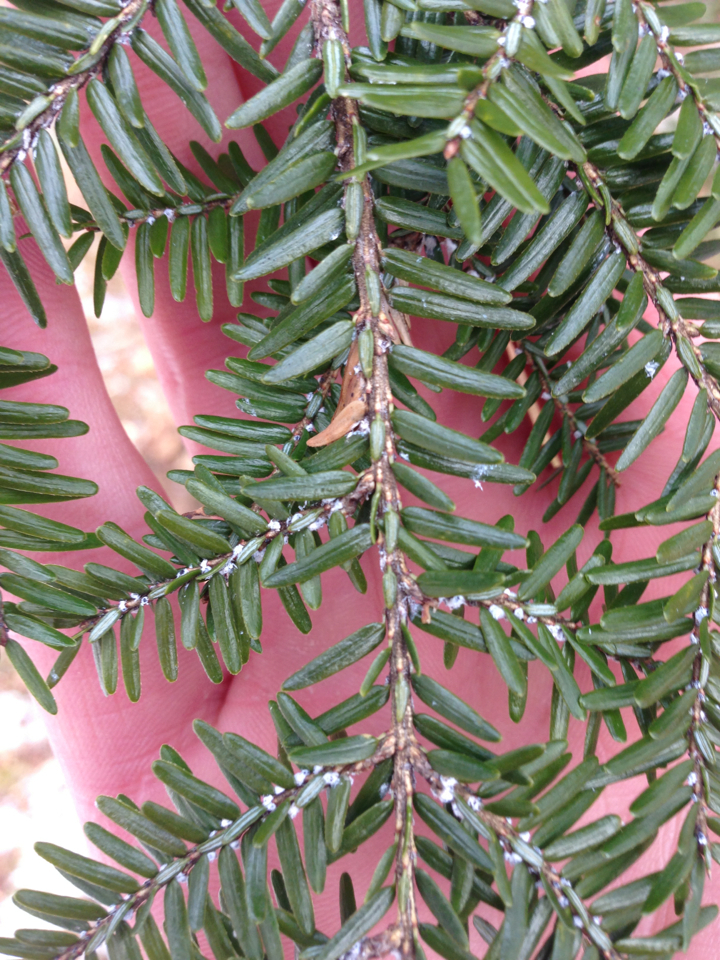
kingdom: Animalia
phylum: Arthropoda
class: Insecta
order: Hemiptera
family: Adelgidae
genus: Adelges
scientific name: Adelges tsugae
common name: Hemlock woolly adelgid
